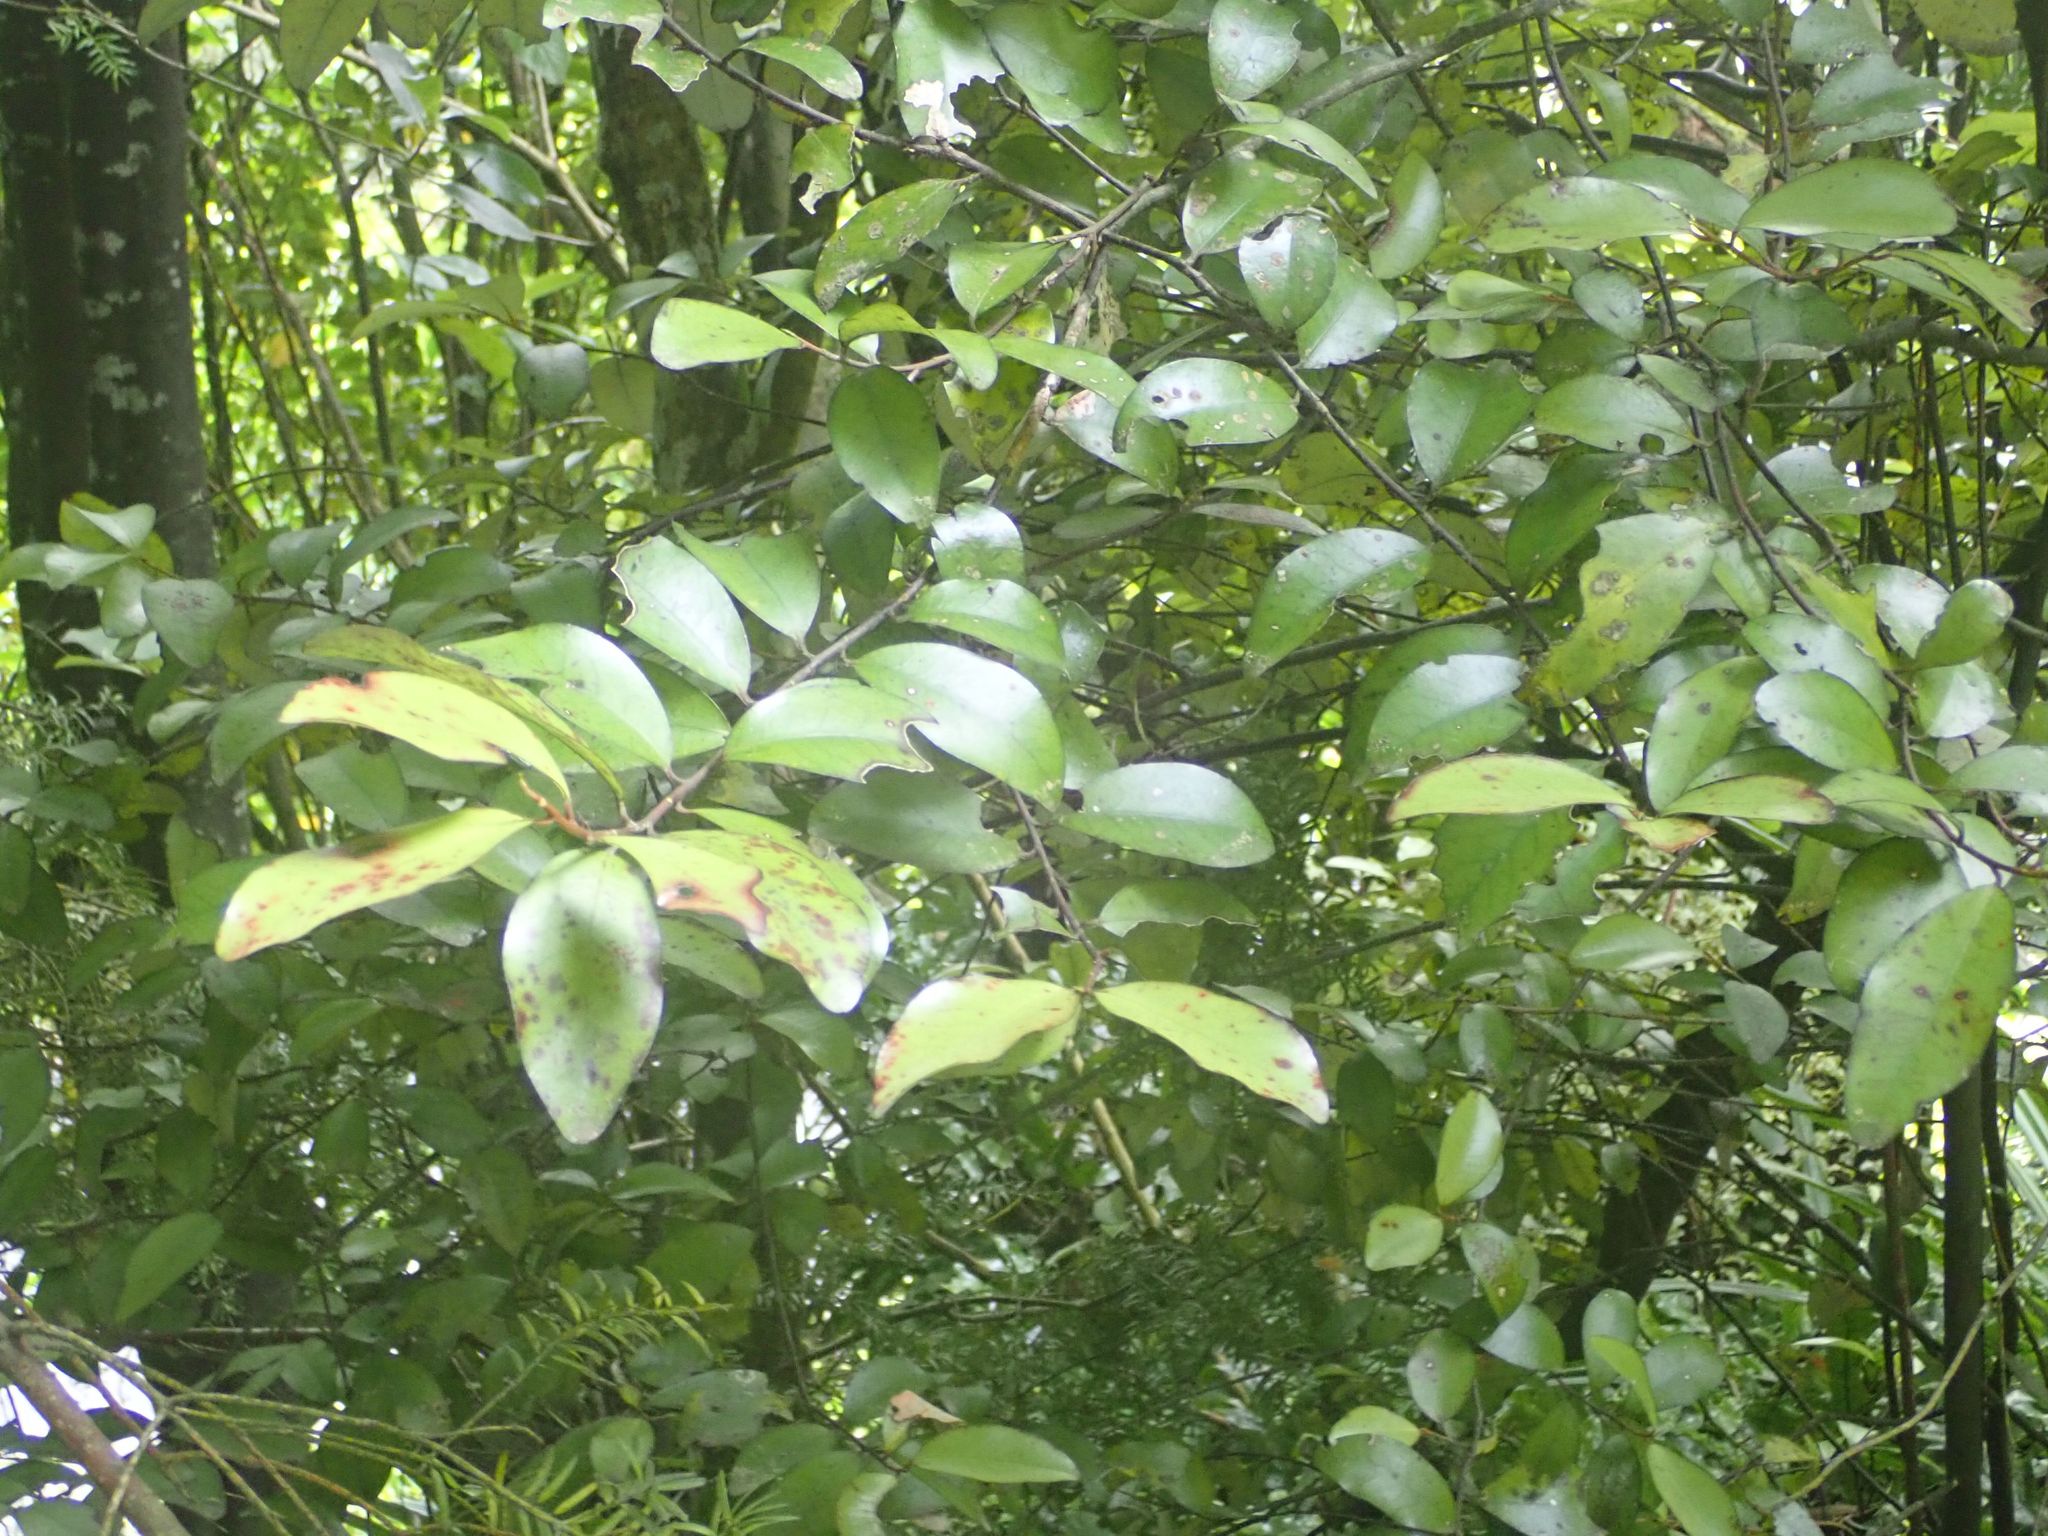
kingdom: Plantae
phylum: Tracheophyta
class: Magnoliopsida
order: Canellales
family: Winteraceae
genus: Pseudowintera
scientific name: Pseudowintera colorata
